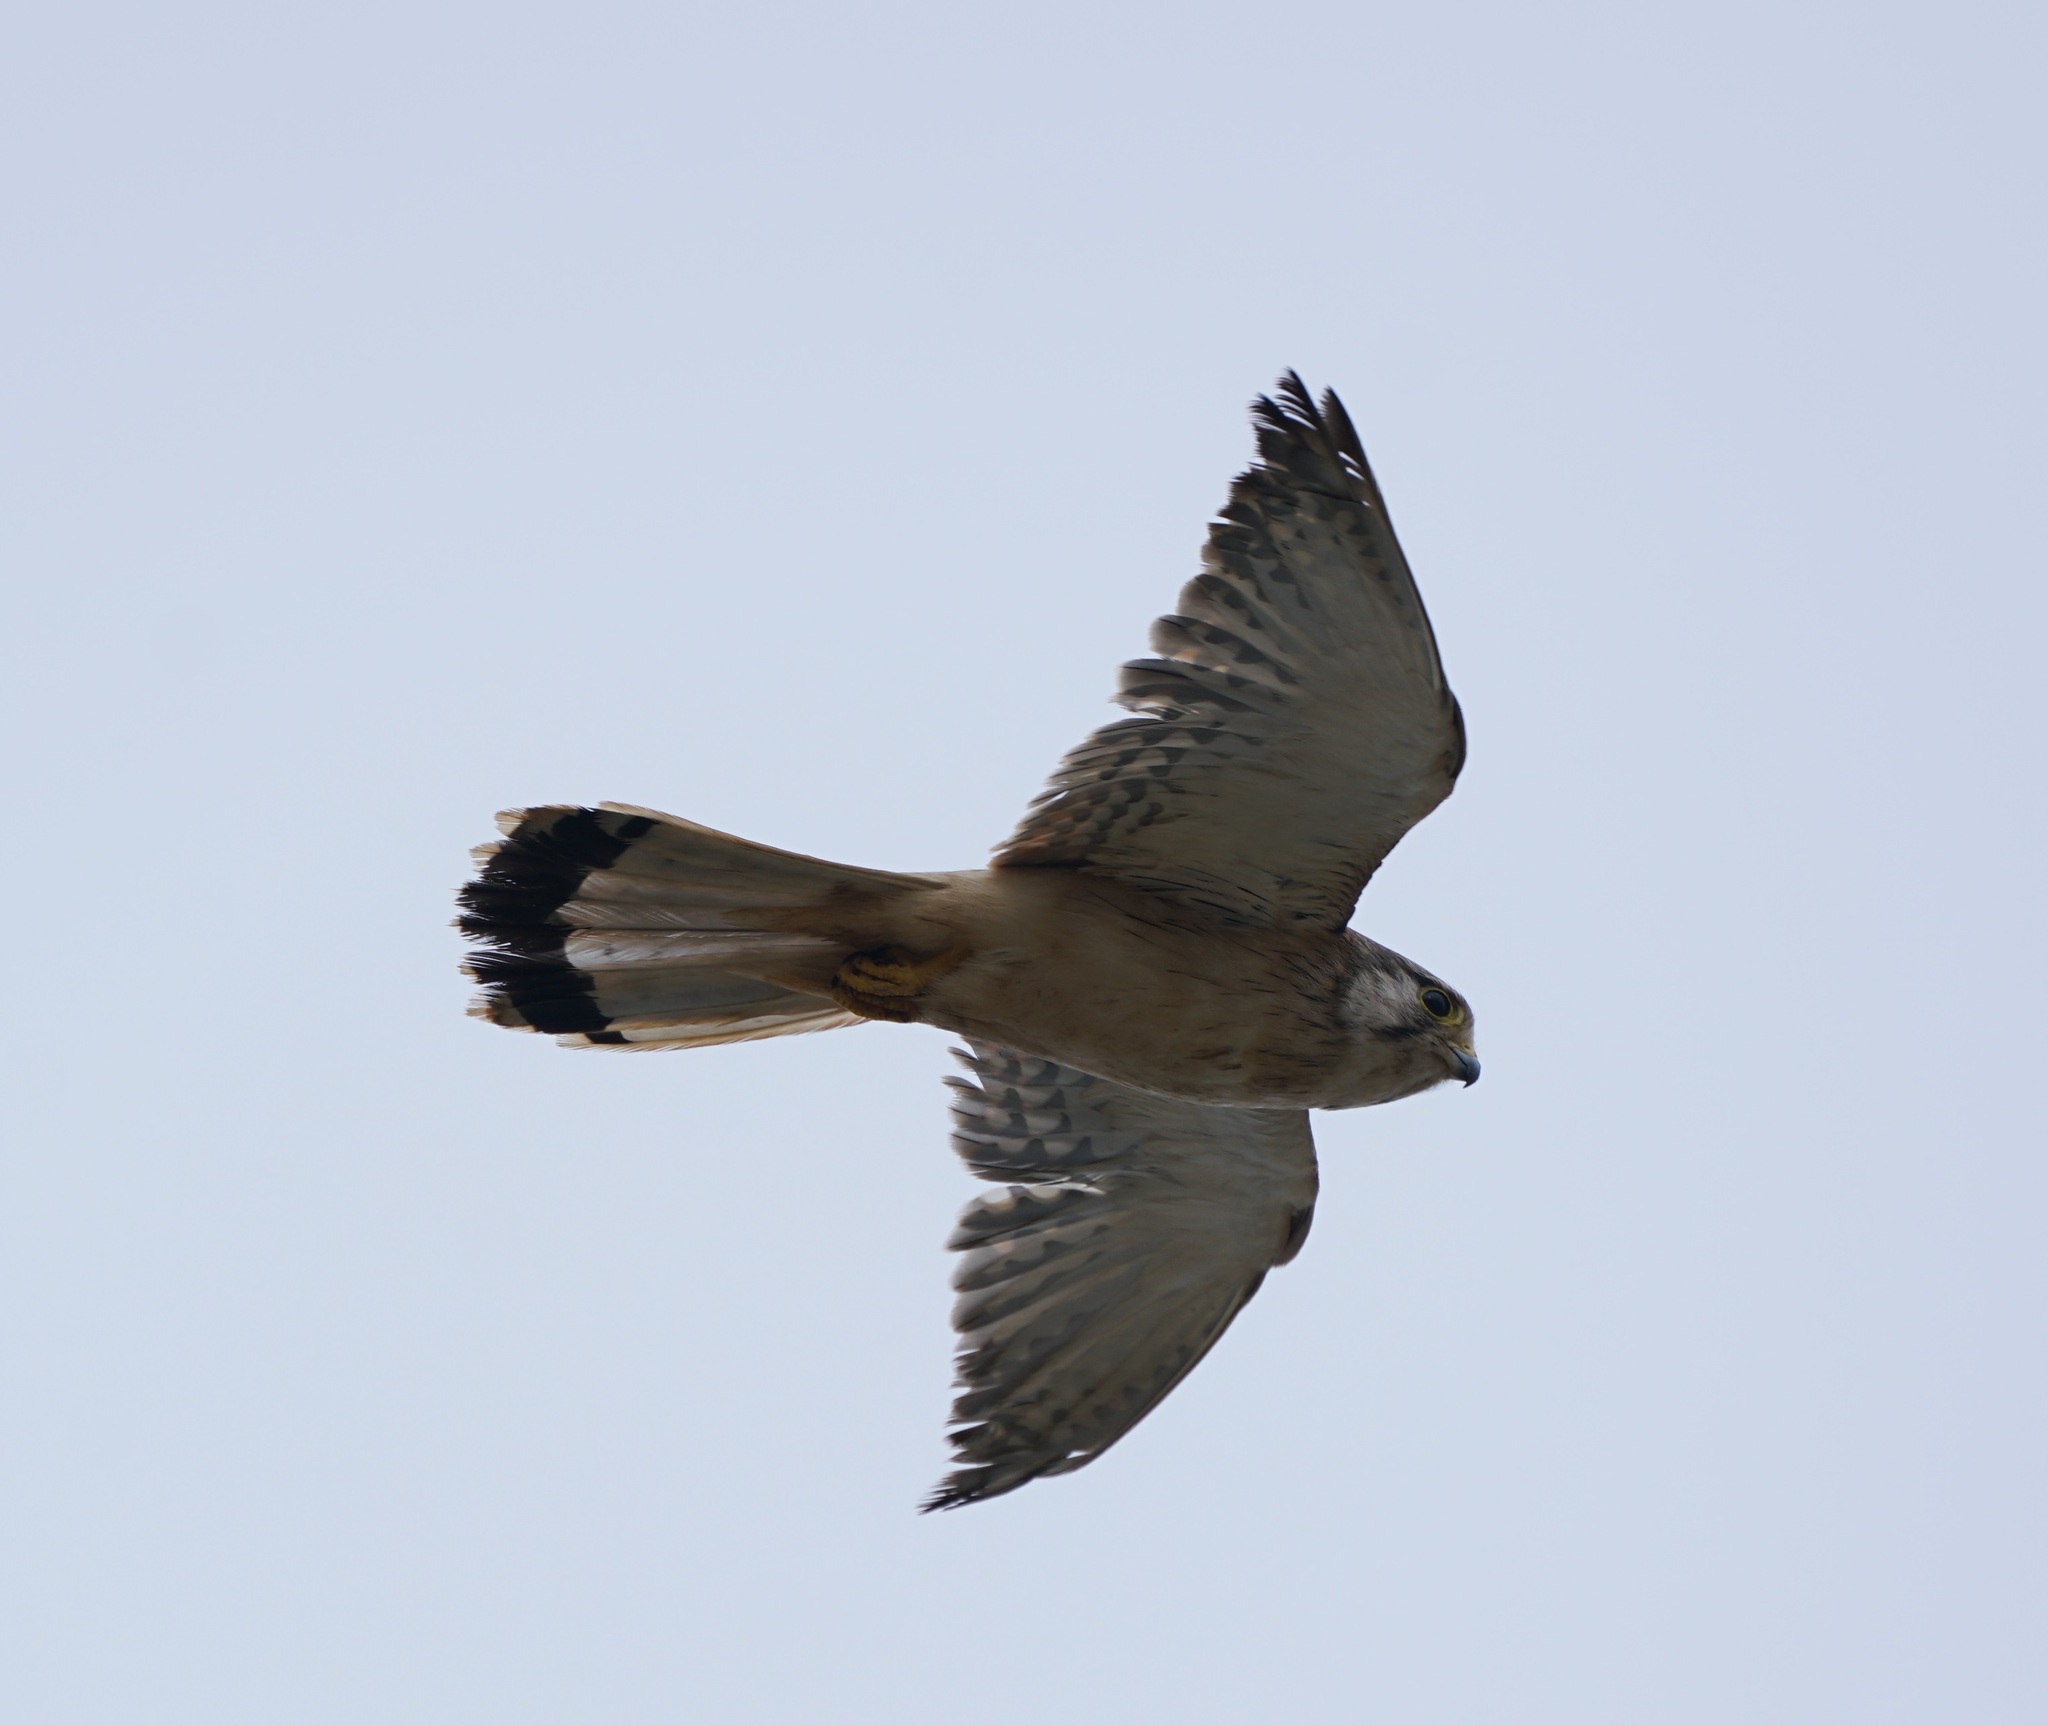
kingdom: Animalia
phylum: Chordata
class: Aves
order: Falconiformes
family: Falconidae
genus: Falco
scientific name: Falco cenchroides
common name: Nankeen kestrel
